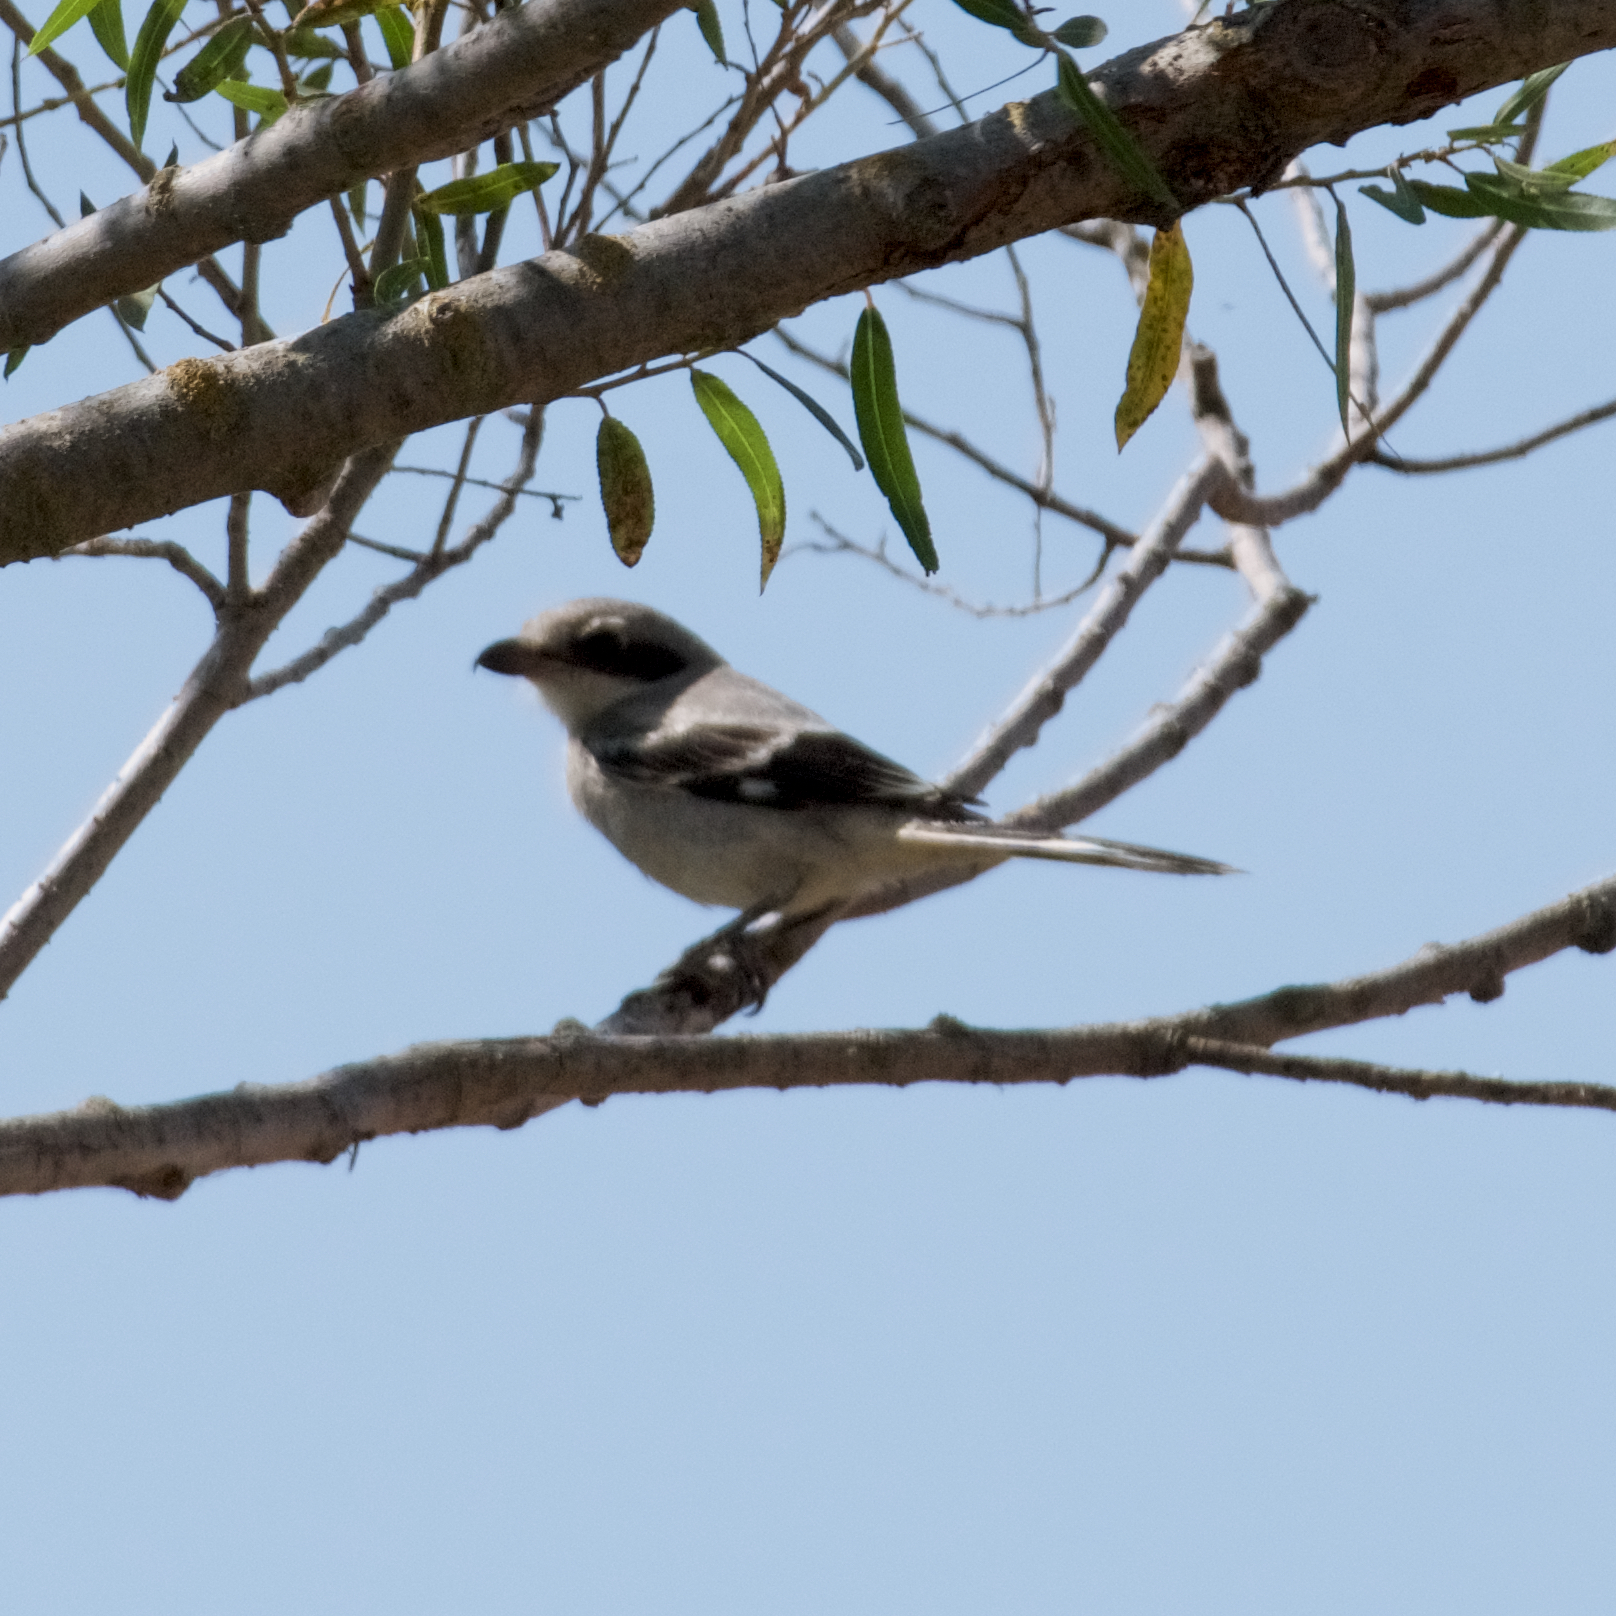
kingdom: Animalia
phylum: Chordata
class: Aves
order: Passeriformes
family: Laniidae
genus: Lanius
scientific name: Lanius ludovicianus
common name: Loggerhead shrike
